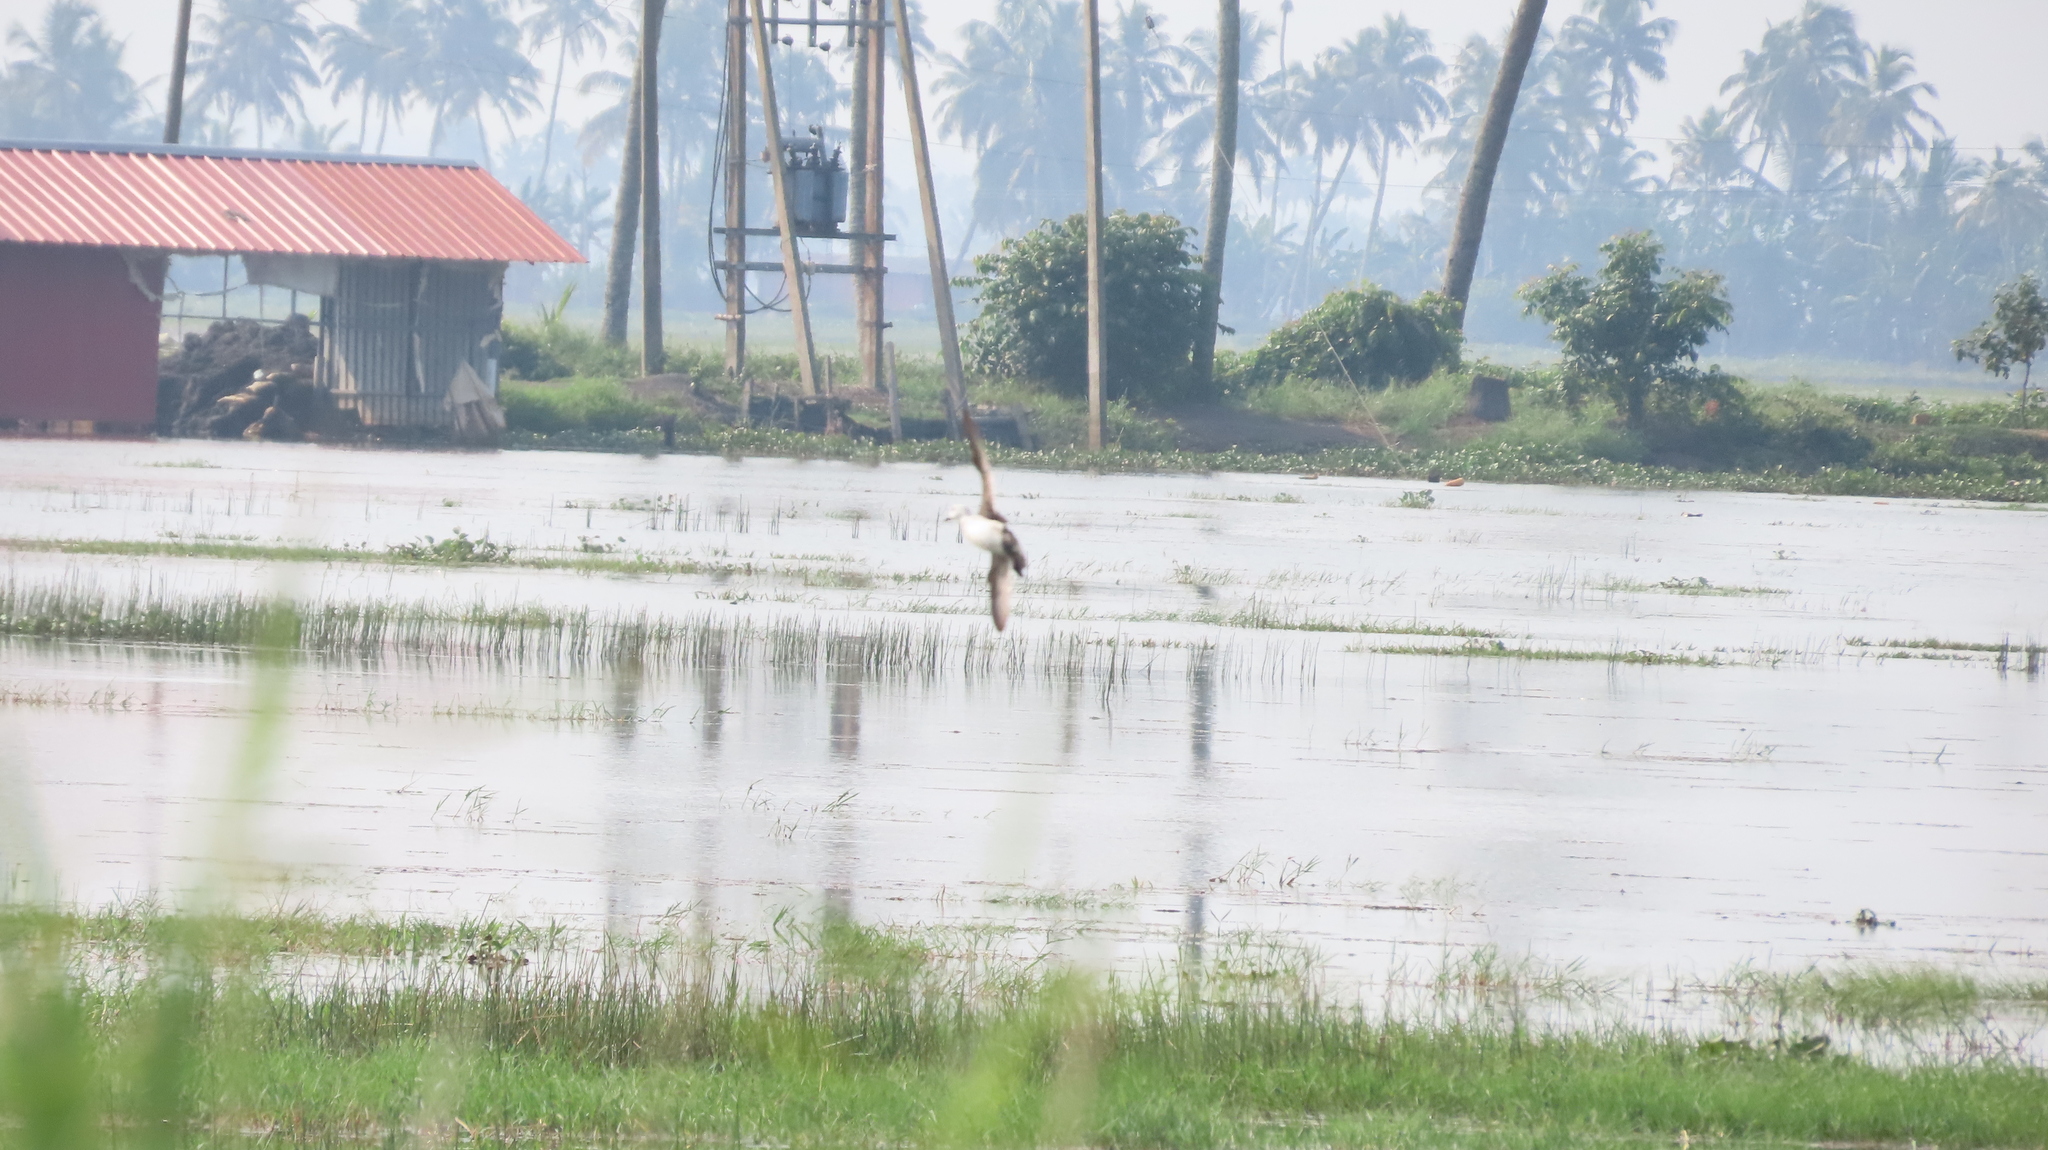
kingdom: Animalia
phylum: Chordata
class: Aves
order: Anseriformes
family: Anatidae
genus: Nettapus
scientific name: Nettapus coromandelianus
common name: Cotton pygmy-goose
